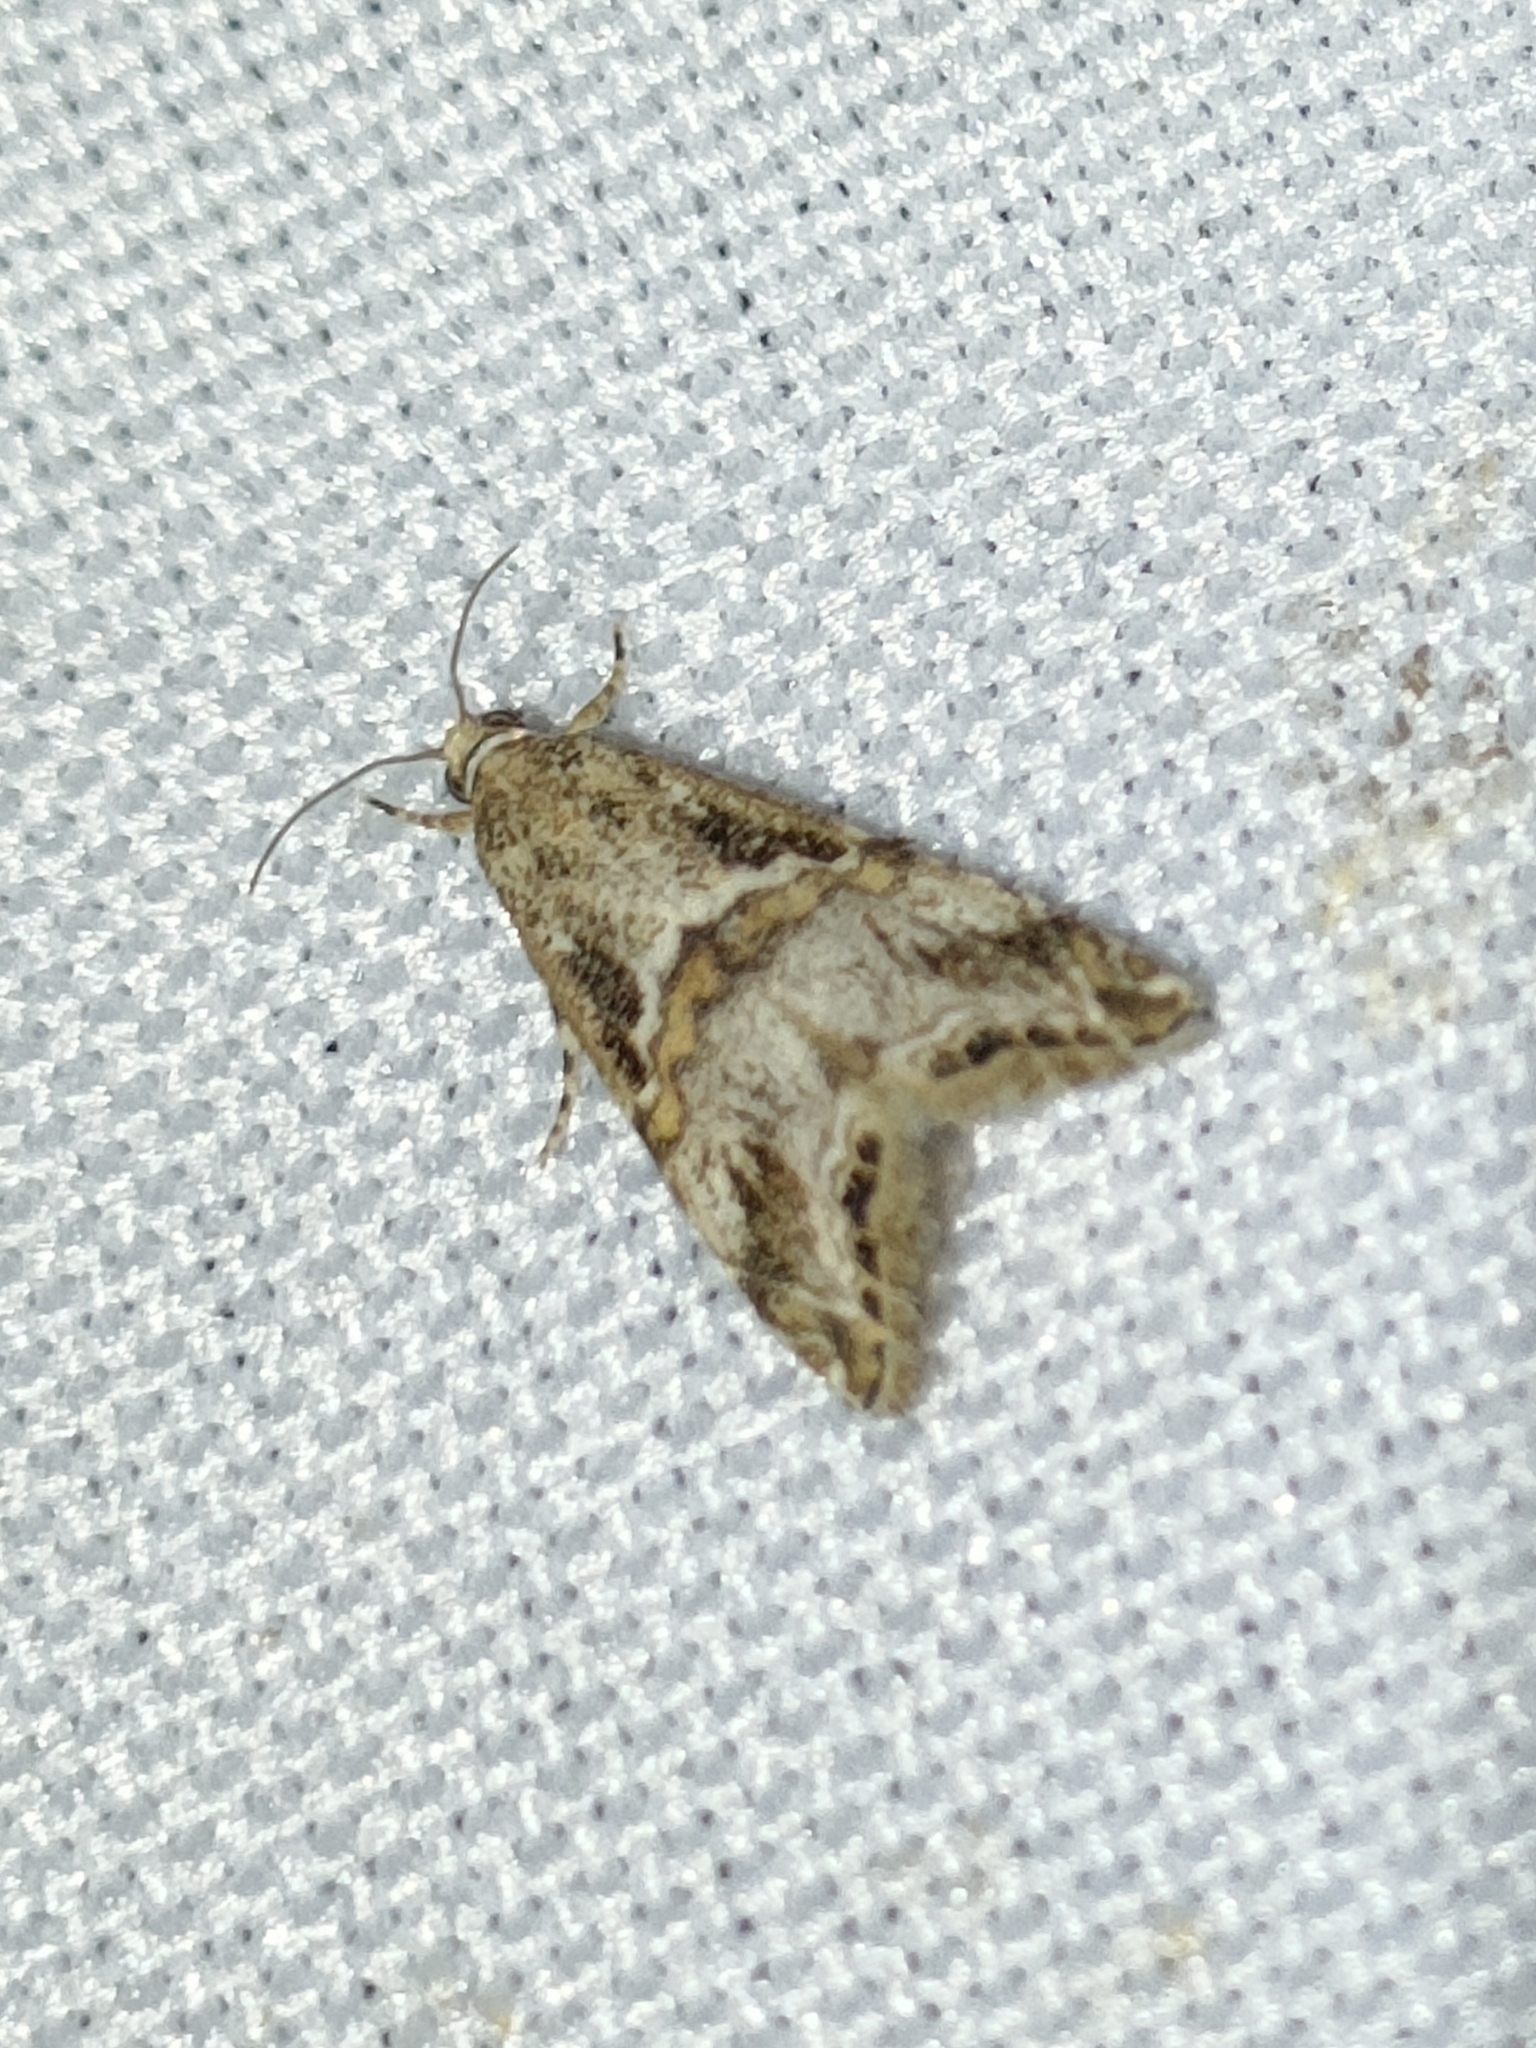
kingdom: Animalia
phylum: Arthropoda
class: Insecta
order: Lepidoptera
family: Crambidae
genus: Euchromius
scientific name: Euchromius cambridgei
